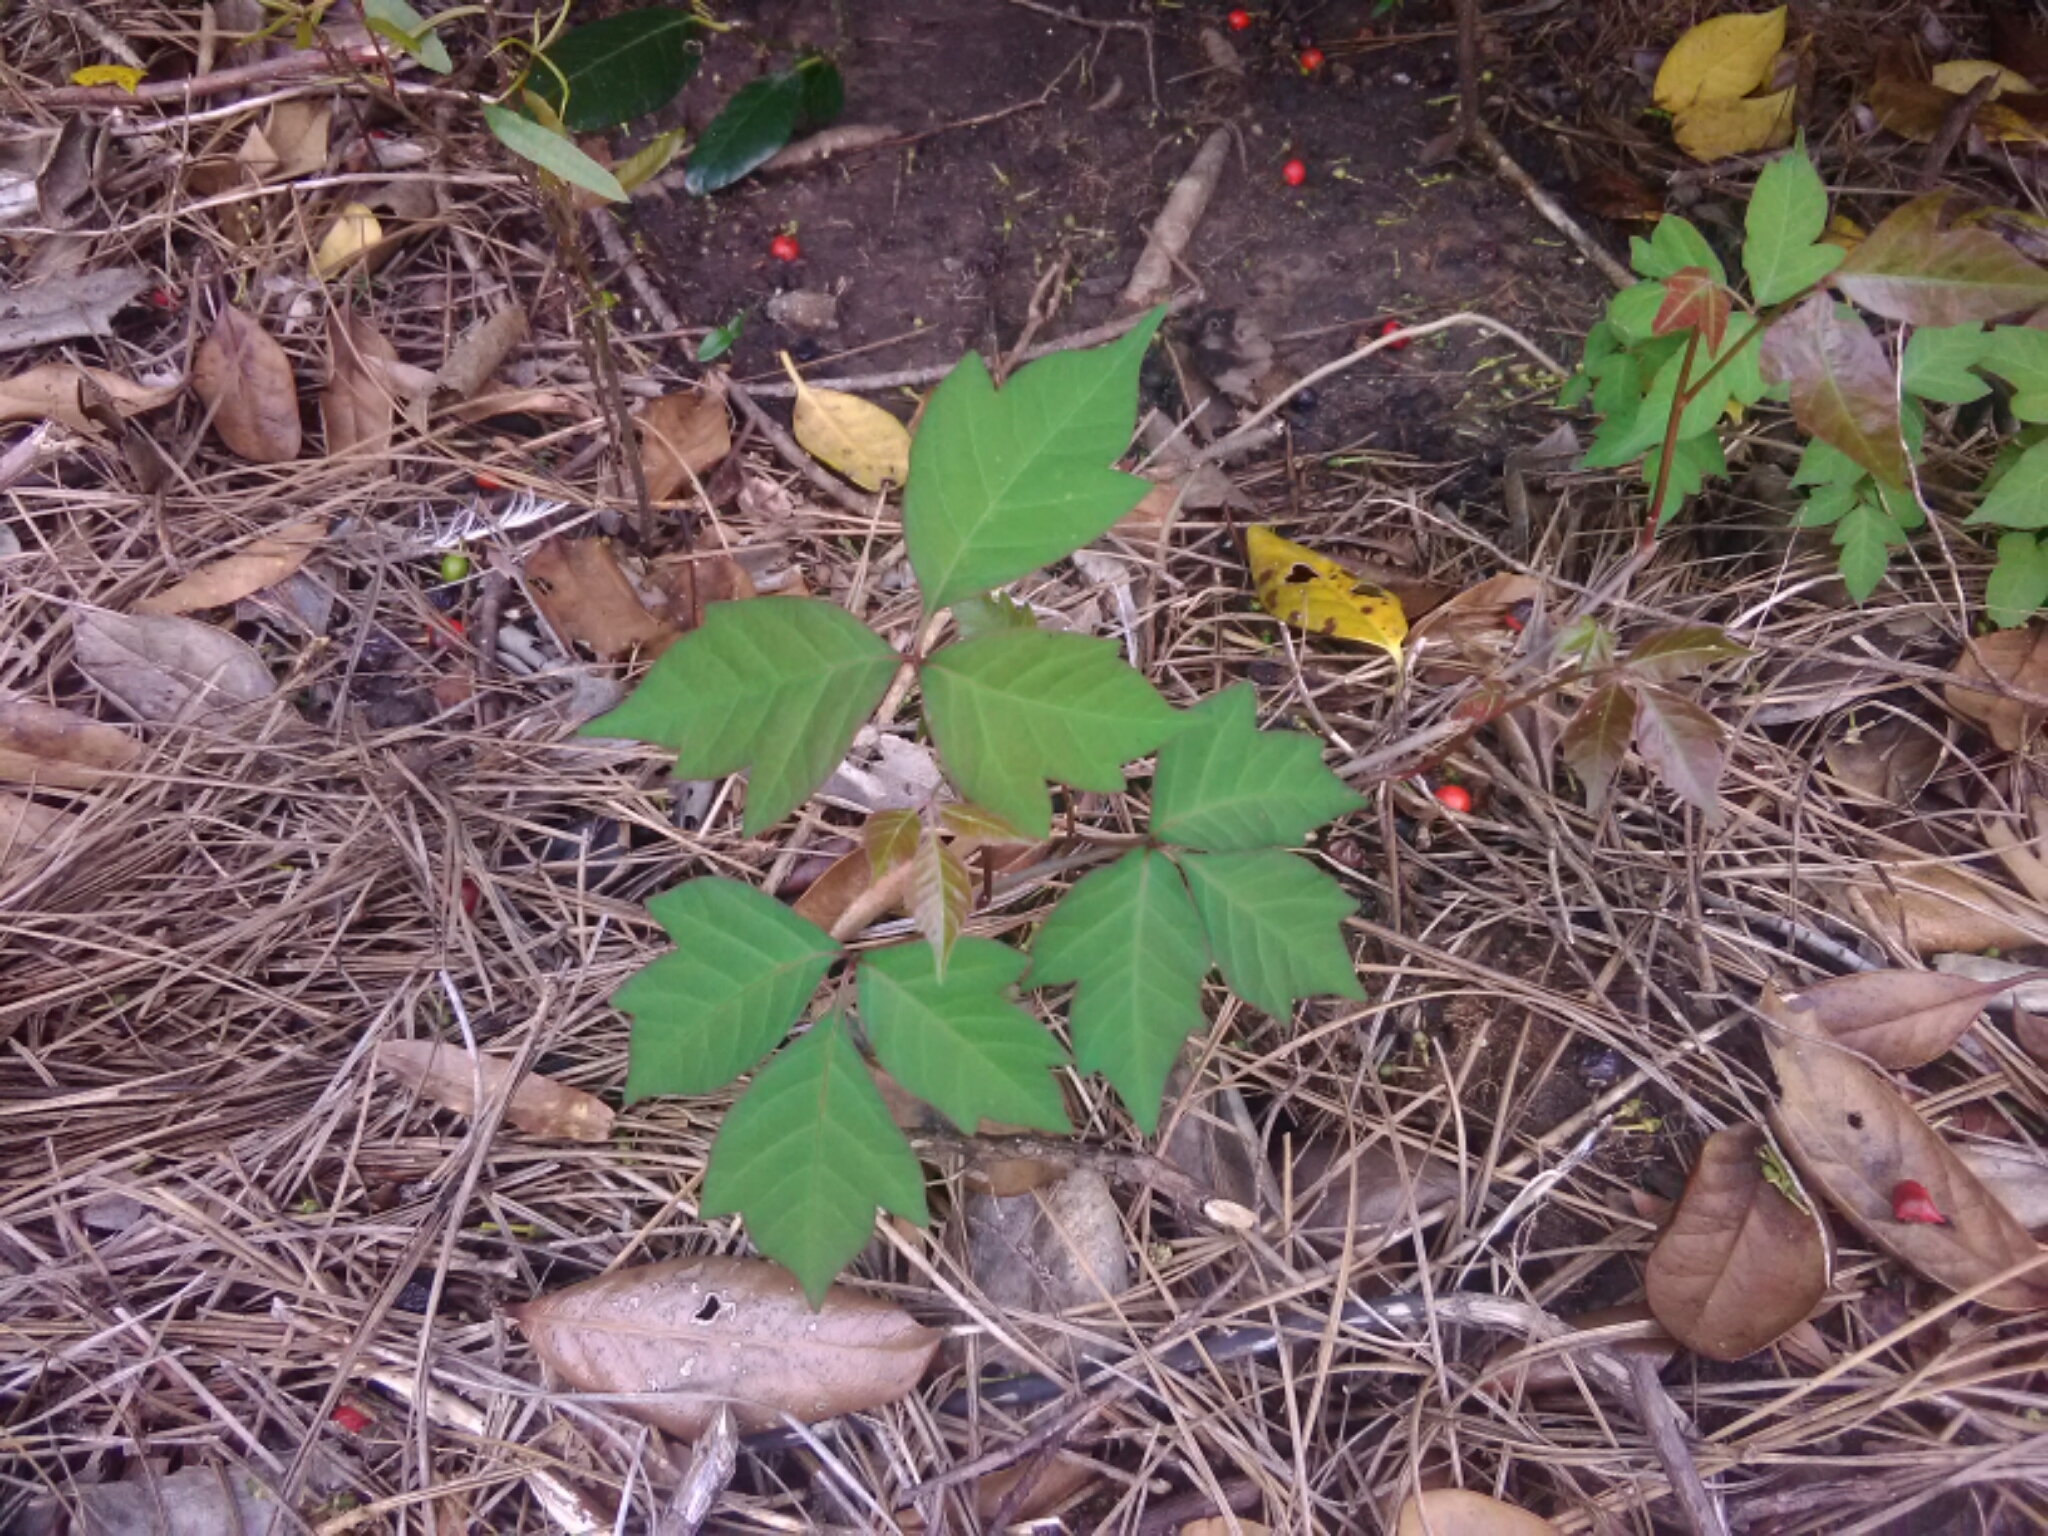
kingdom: Plantae
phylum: Tracheophyta
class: Magnoliopsida
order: Sapindales
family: Anacardiaceae
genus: Toxicodendron
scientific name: Toxicodendron radicans
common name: Poison ivy
